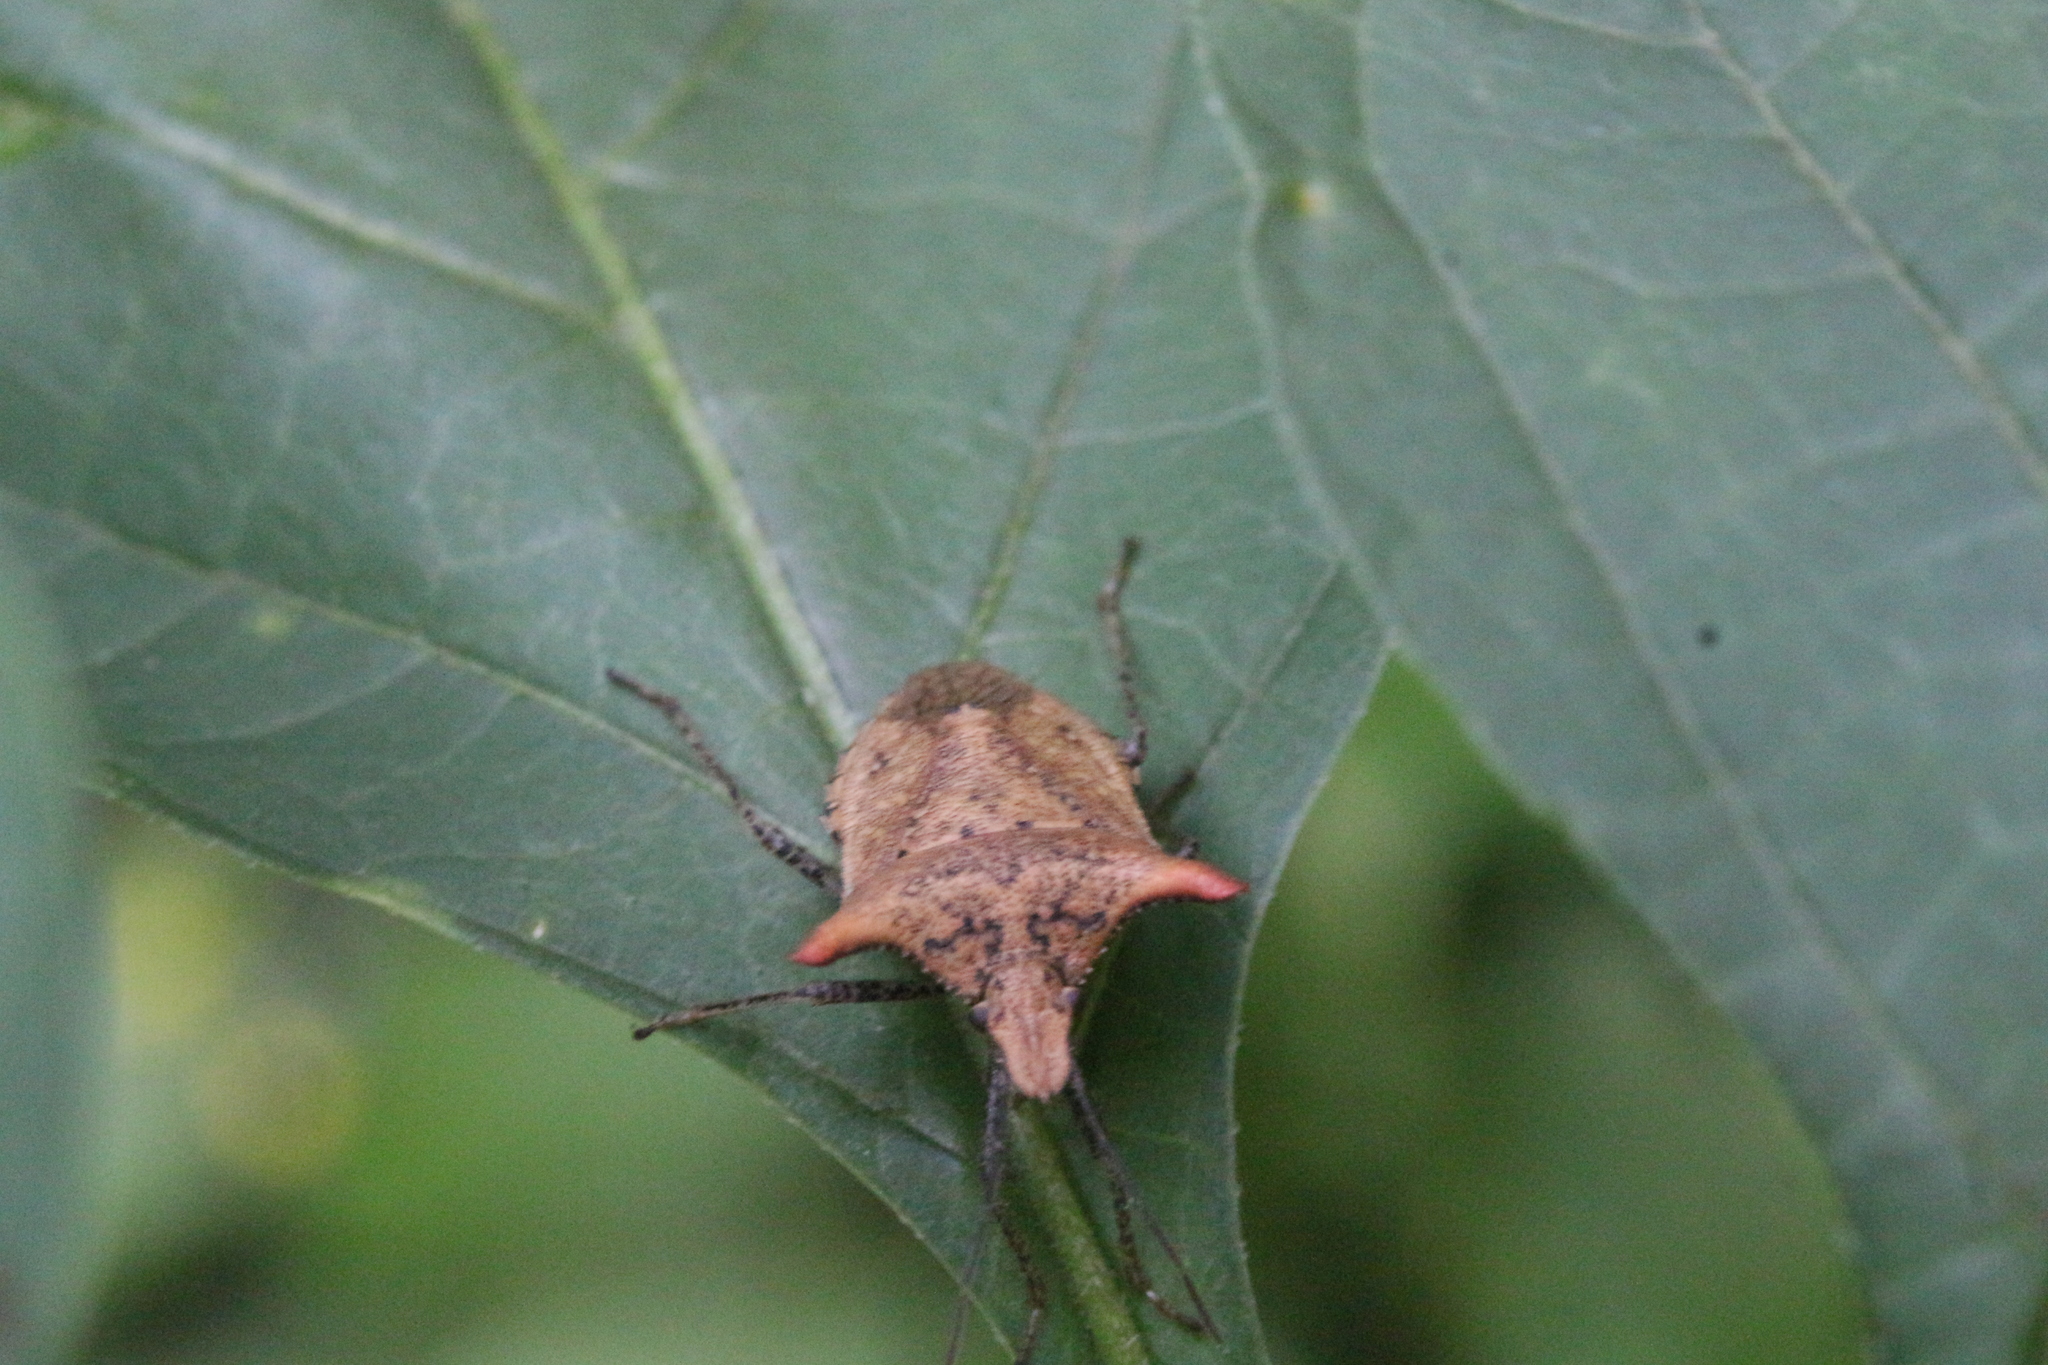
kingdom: Animalia
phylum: Arthropoda
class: Insecta
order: Hemiptera
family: Pentatomidae
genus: Euschistus
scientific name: Euschistus cornutus
